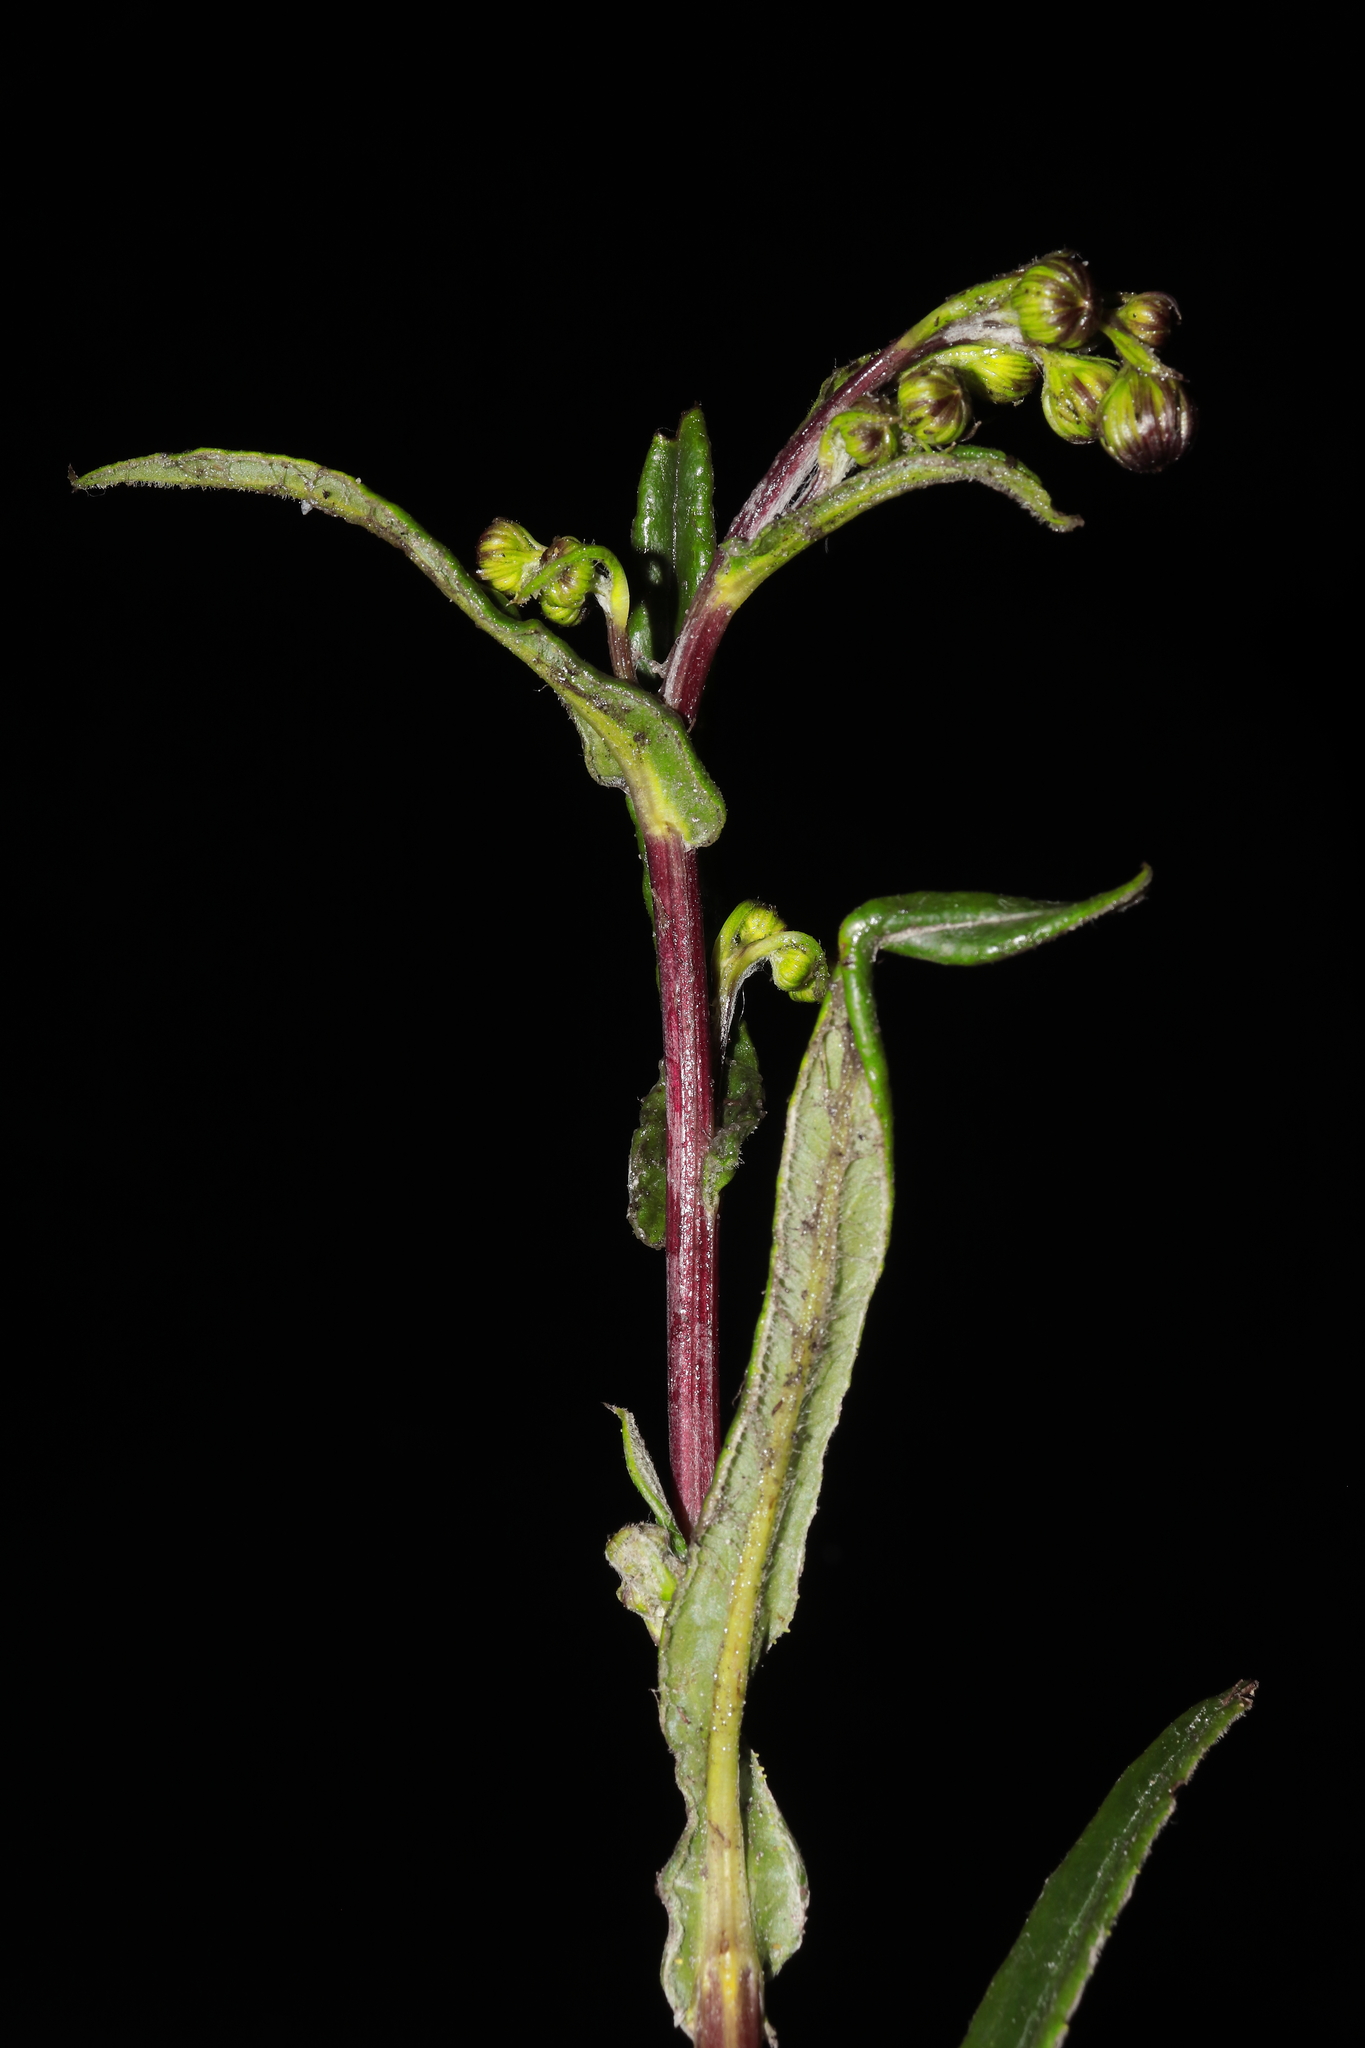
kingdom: Plantae
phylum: Tracheophyta
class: Magnoliopsida
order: Asterales
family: Asteraceae
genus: Senecio
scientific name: Senecio arachnolomus
